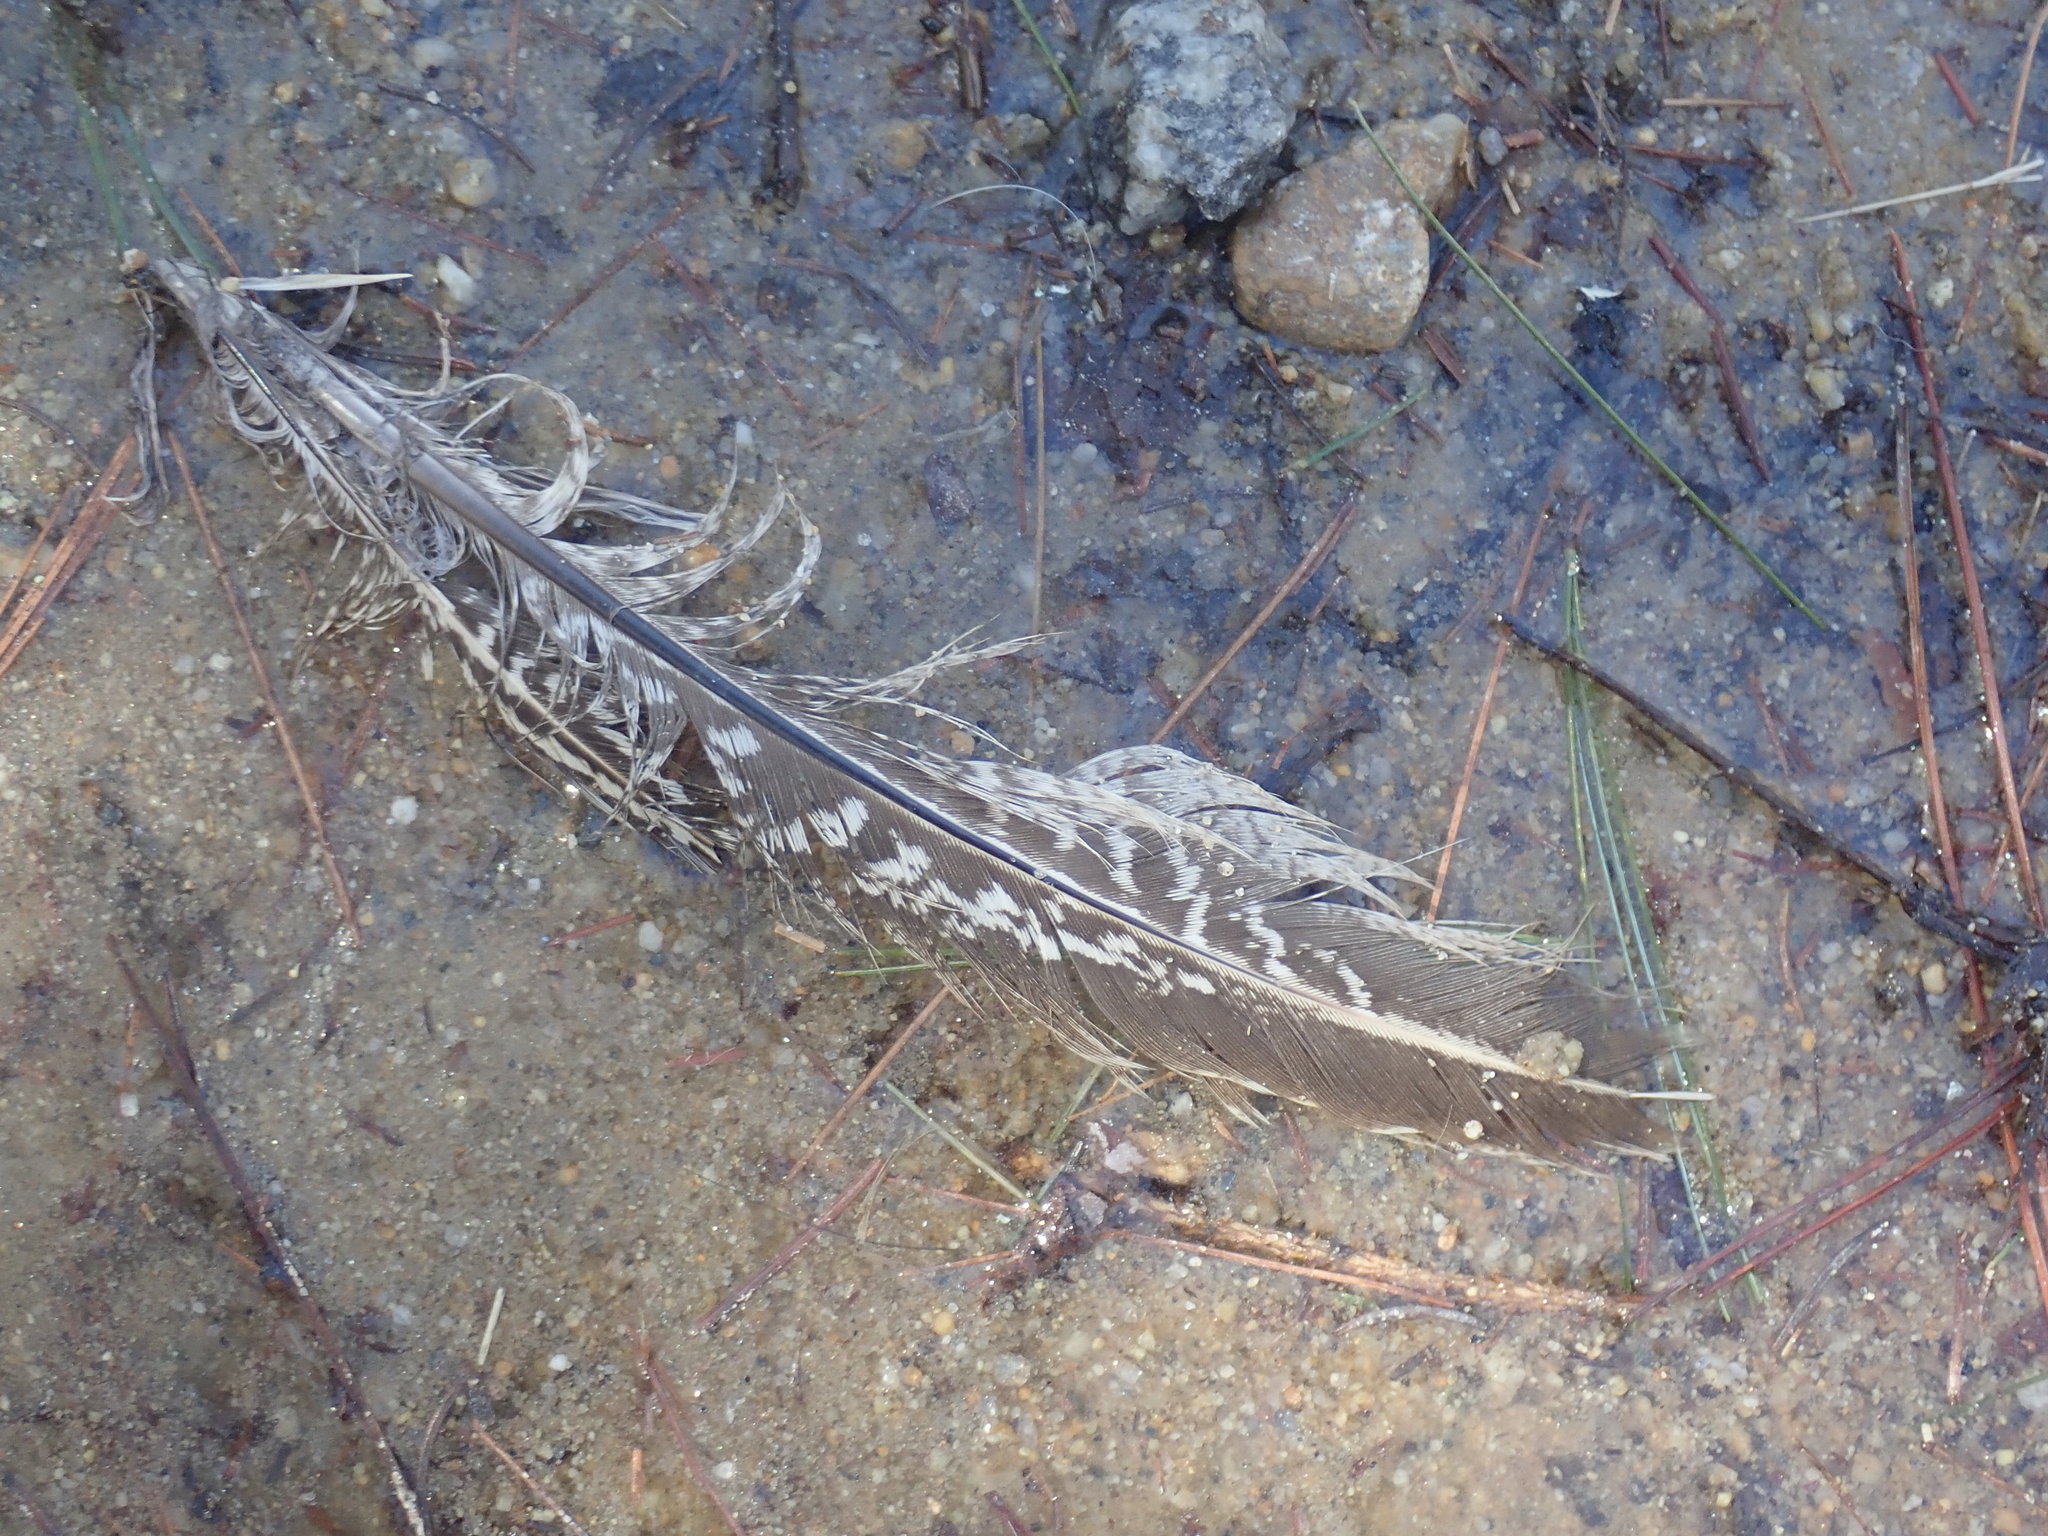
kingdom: Animalia
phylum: Chordata
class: Aves
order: Galliformes
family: Phasianidae
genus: Phasianus
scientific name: Phasianus colchicus
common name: Common pheasant
